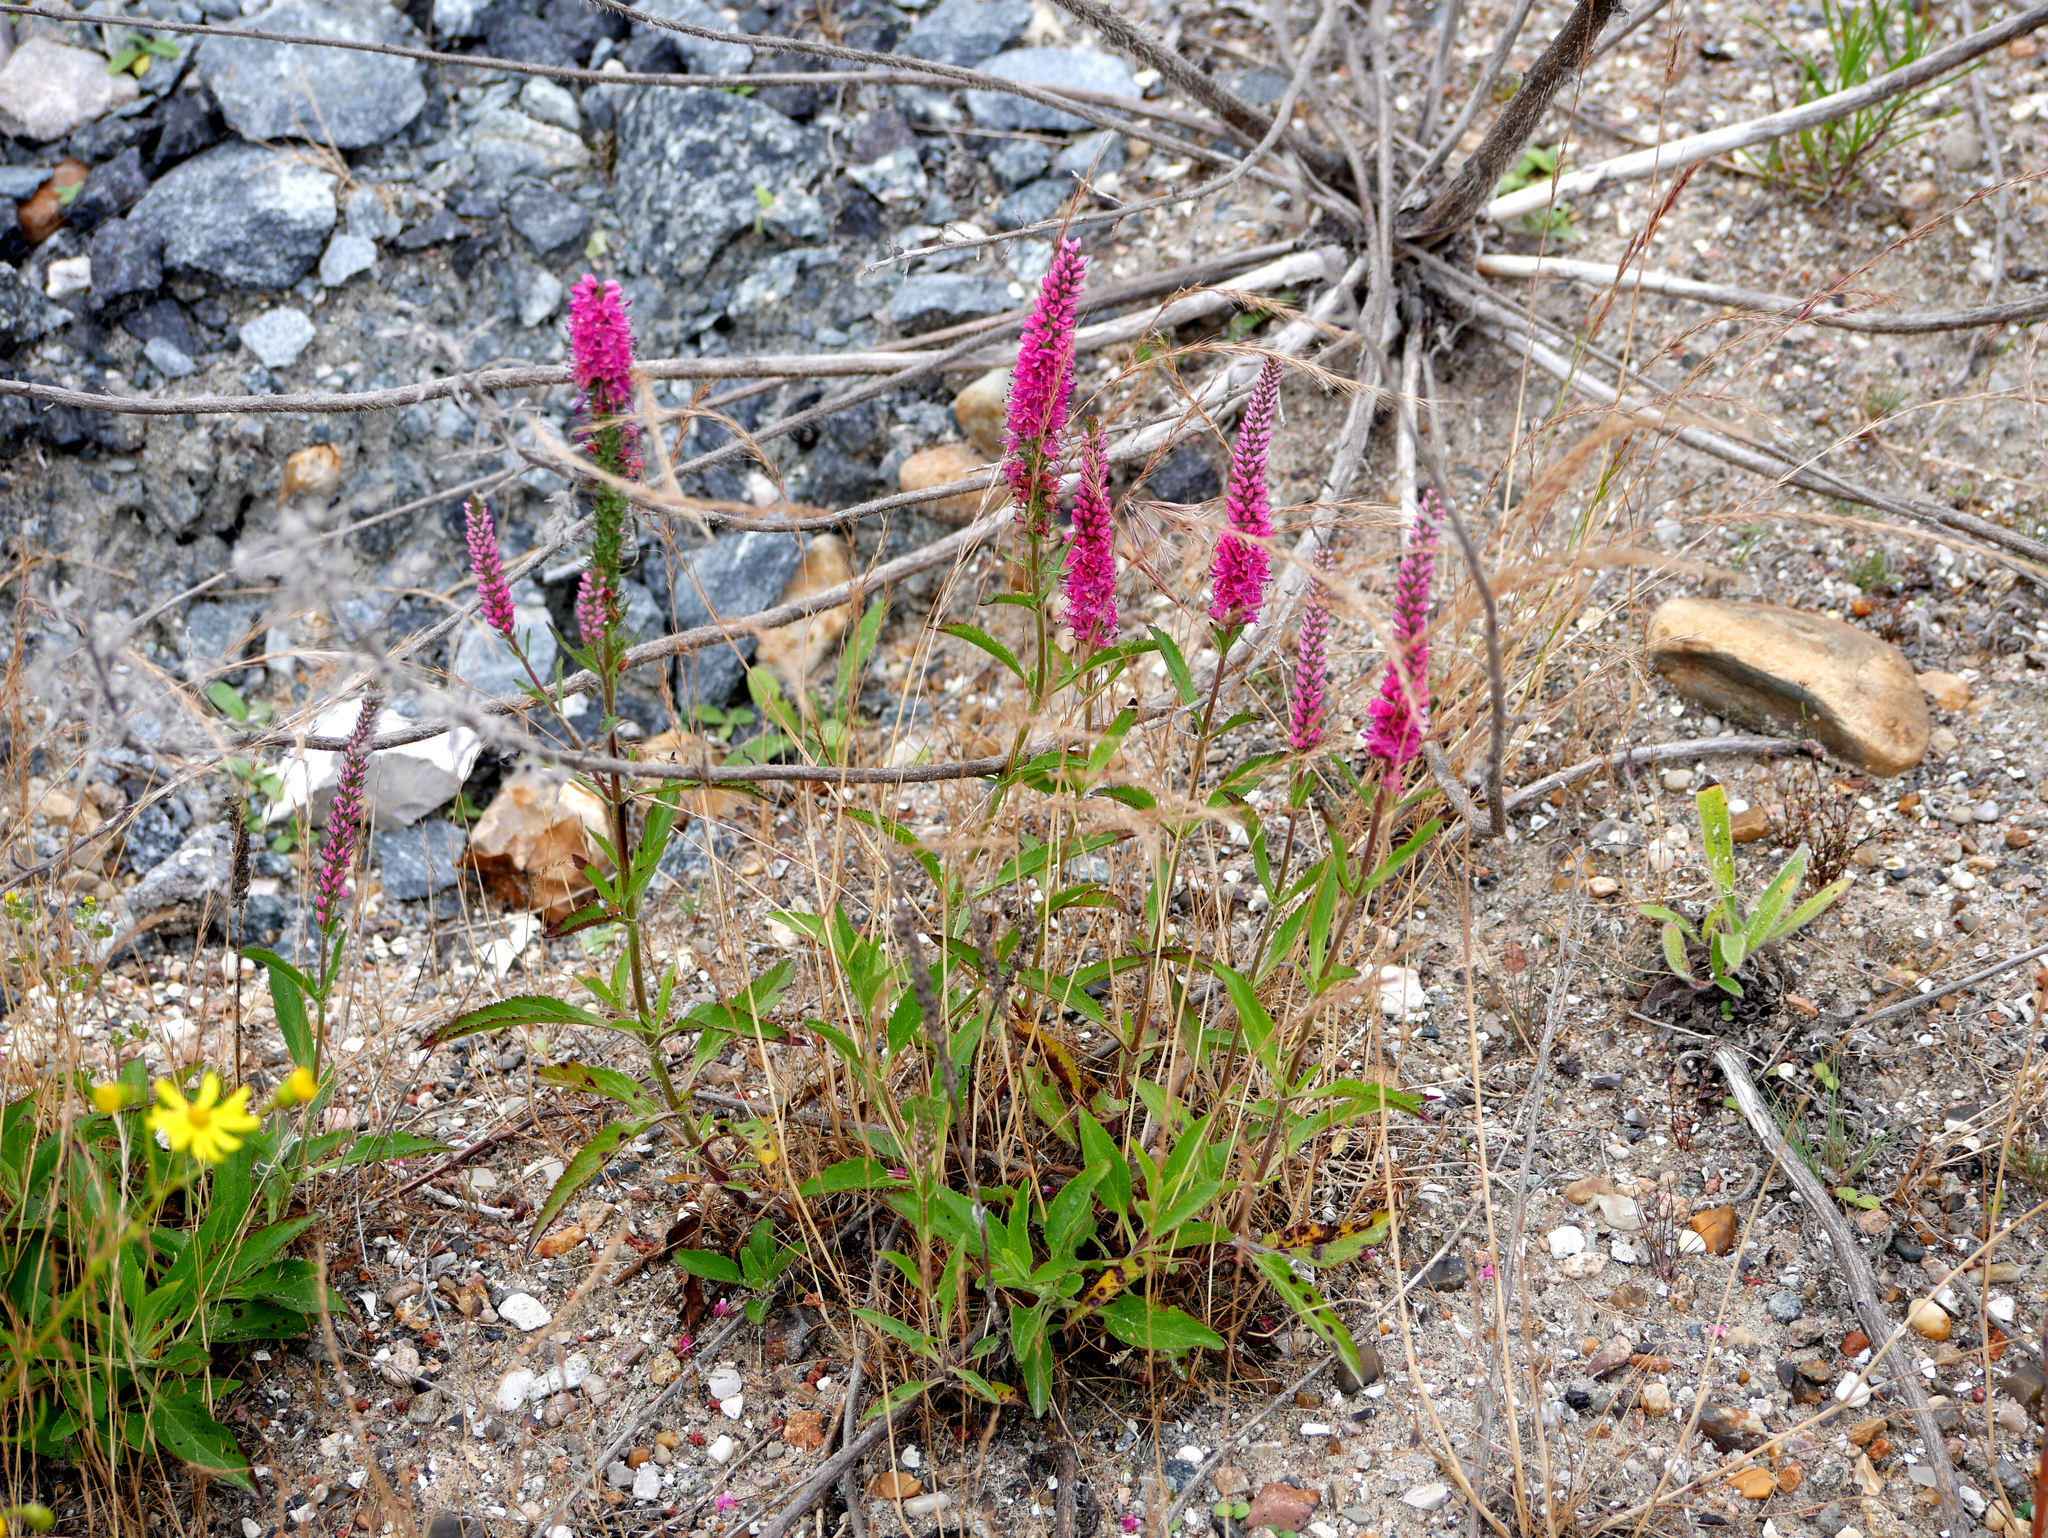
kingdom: Plantae
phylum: Tracheophyta
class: Magnoliopsida
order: Lamiales
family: Plantaginaceae
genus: Veronica
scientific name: Veronica spicata
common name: Spiked speedwell
